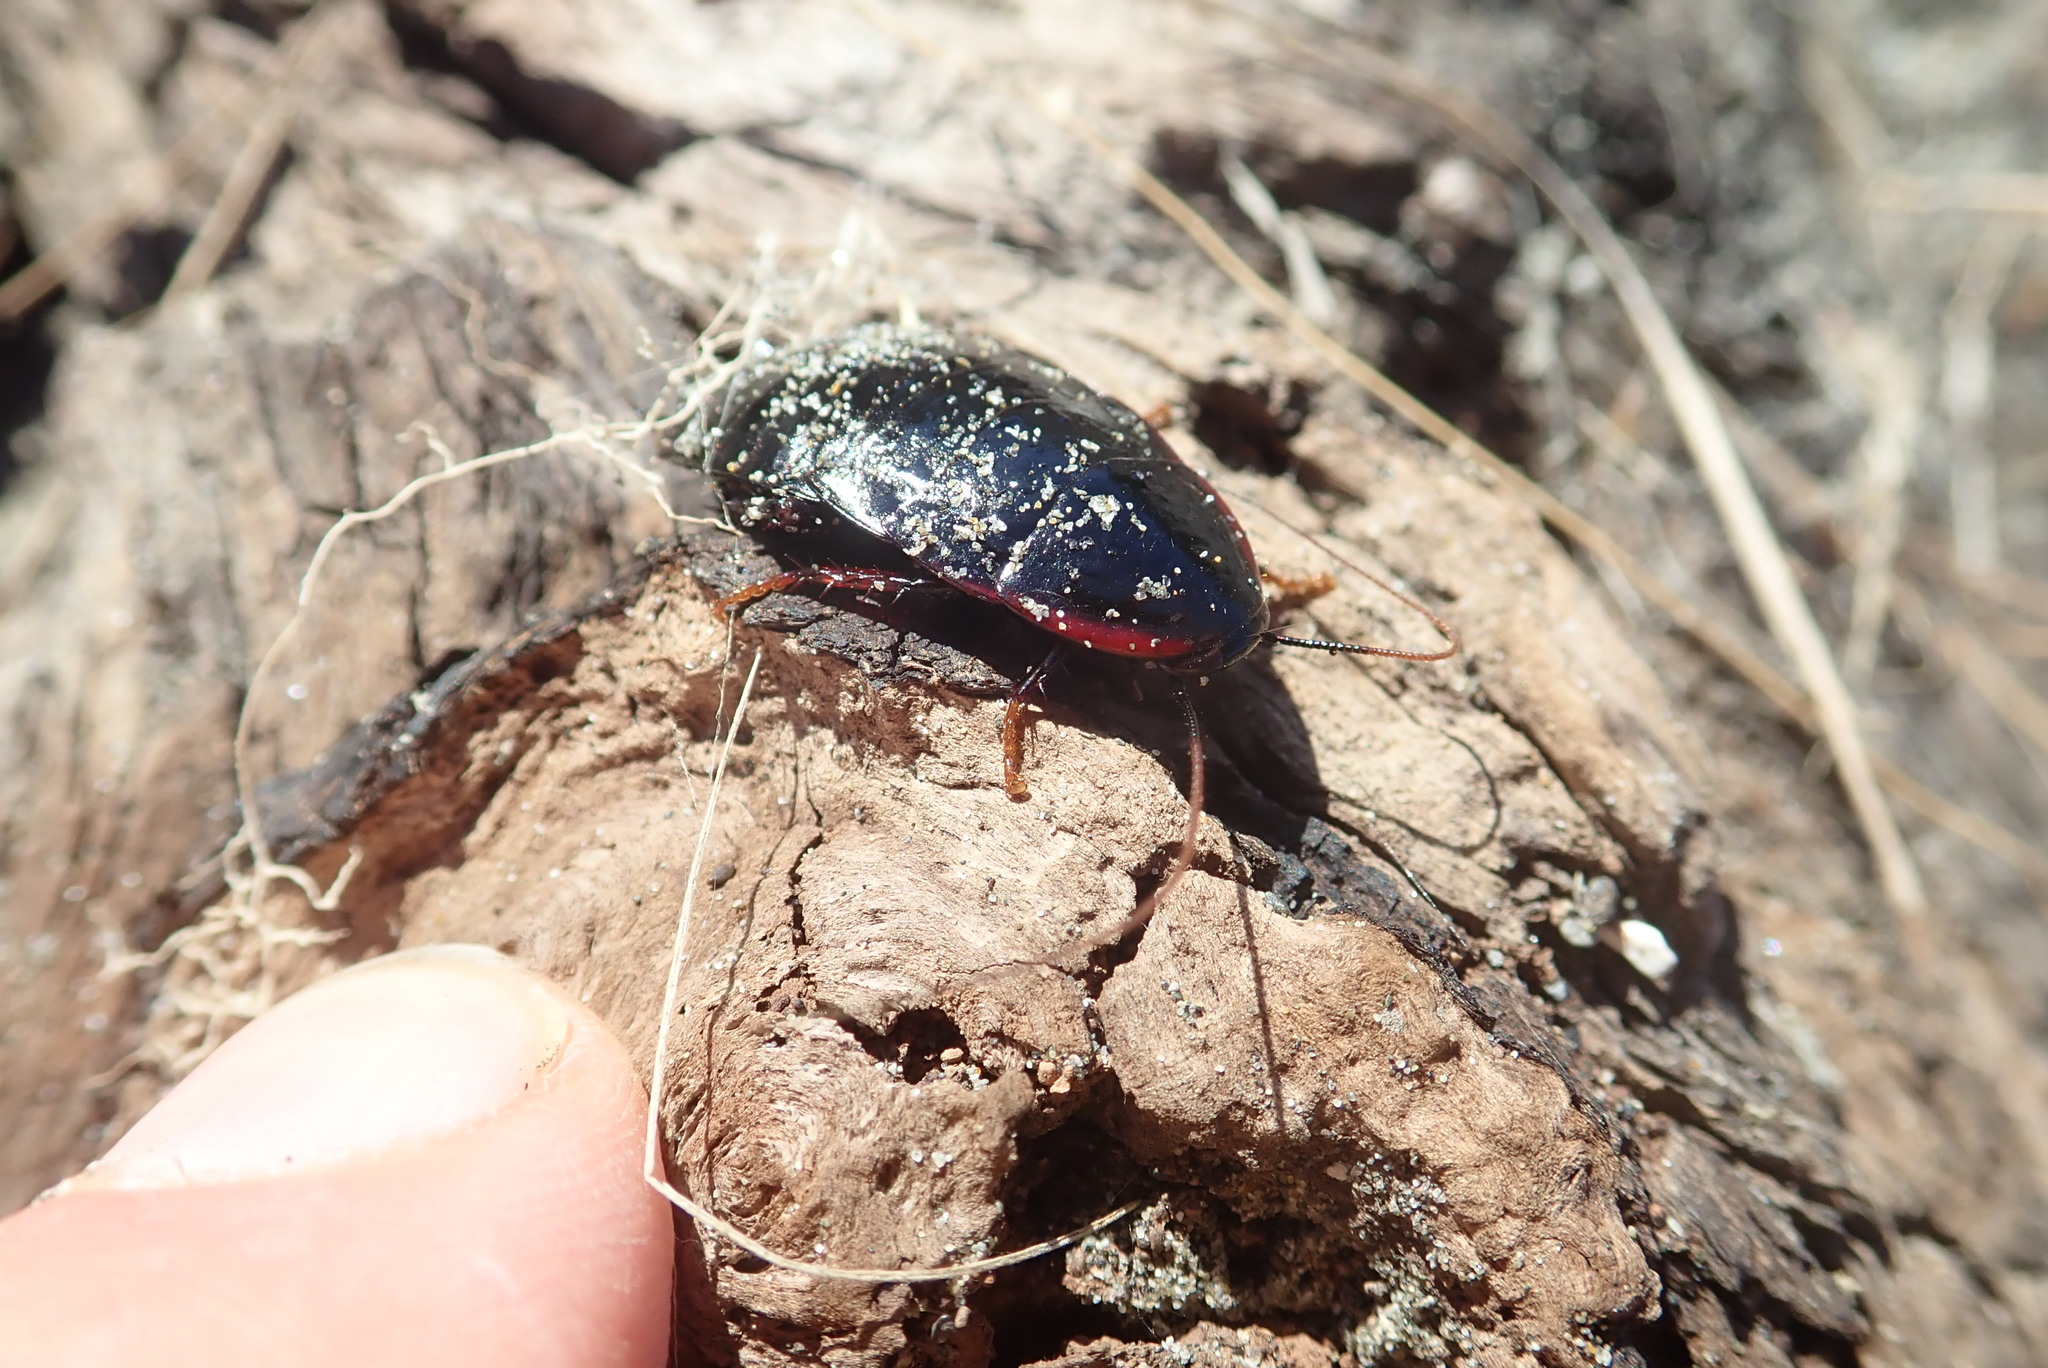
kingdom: Animalia
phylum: Arthropoda
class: Insecta
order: Blattodea
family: Blattidae
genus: Maoriblatta
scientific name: Maoriblatta novaeseelandiae
